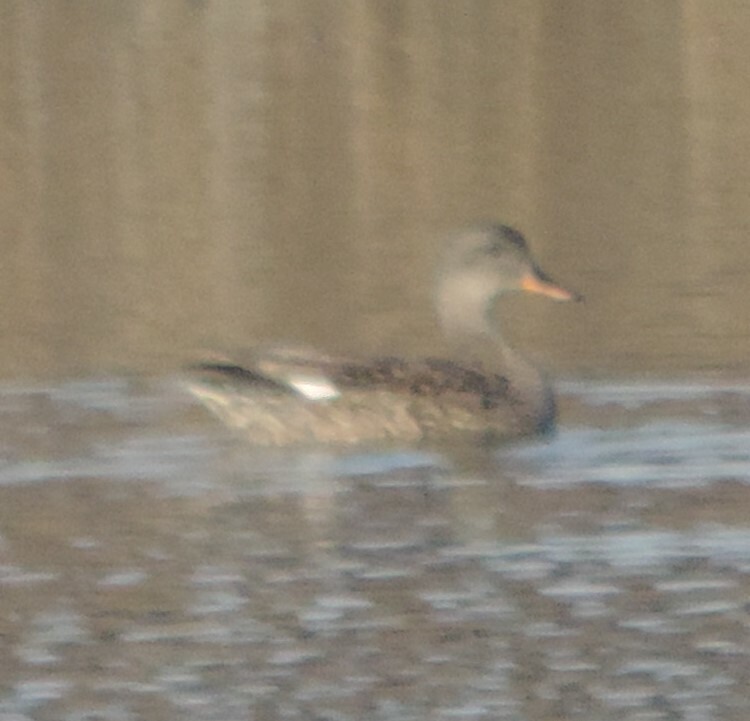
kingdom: Animalia
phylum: Chordata
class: Aves
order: Anseriformes
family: Anatidae
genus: Mareca
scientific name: Mareca strepera
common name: Gadwall
